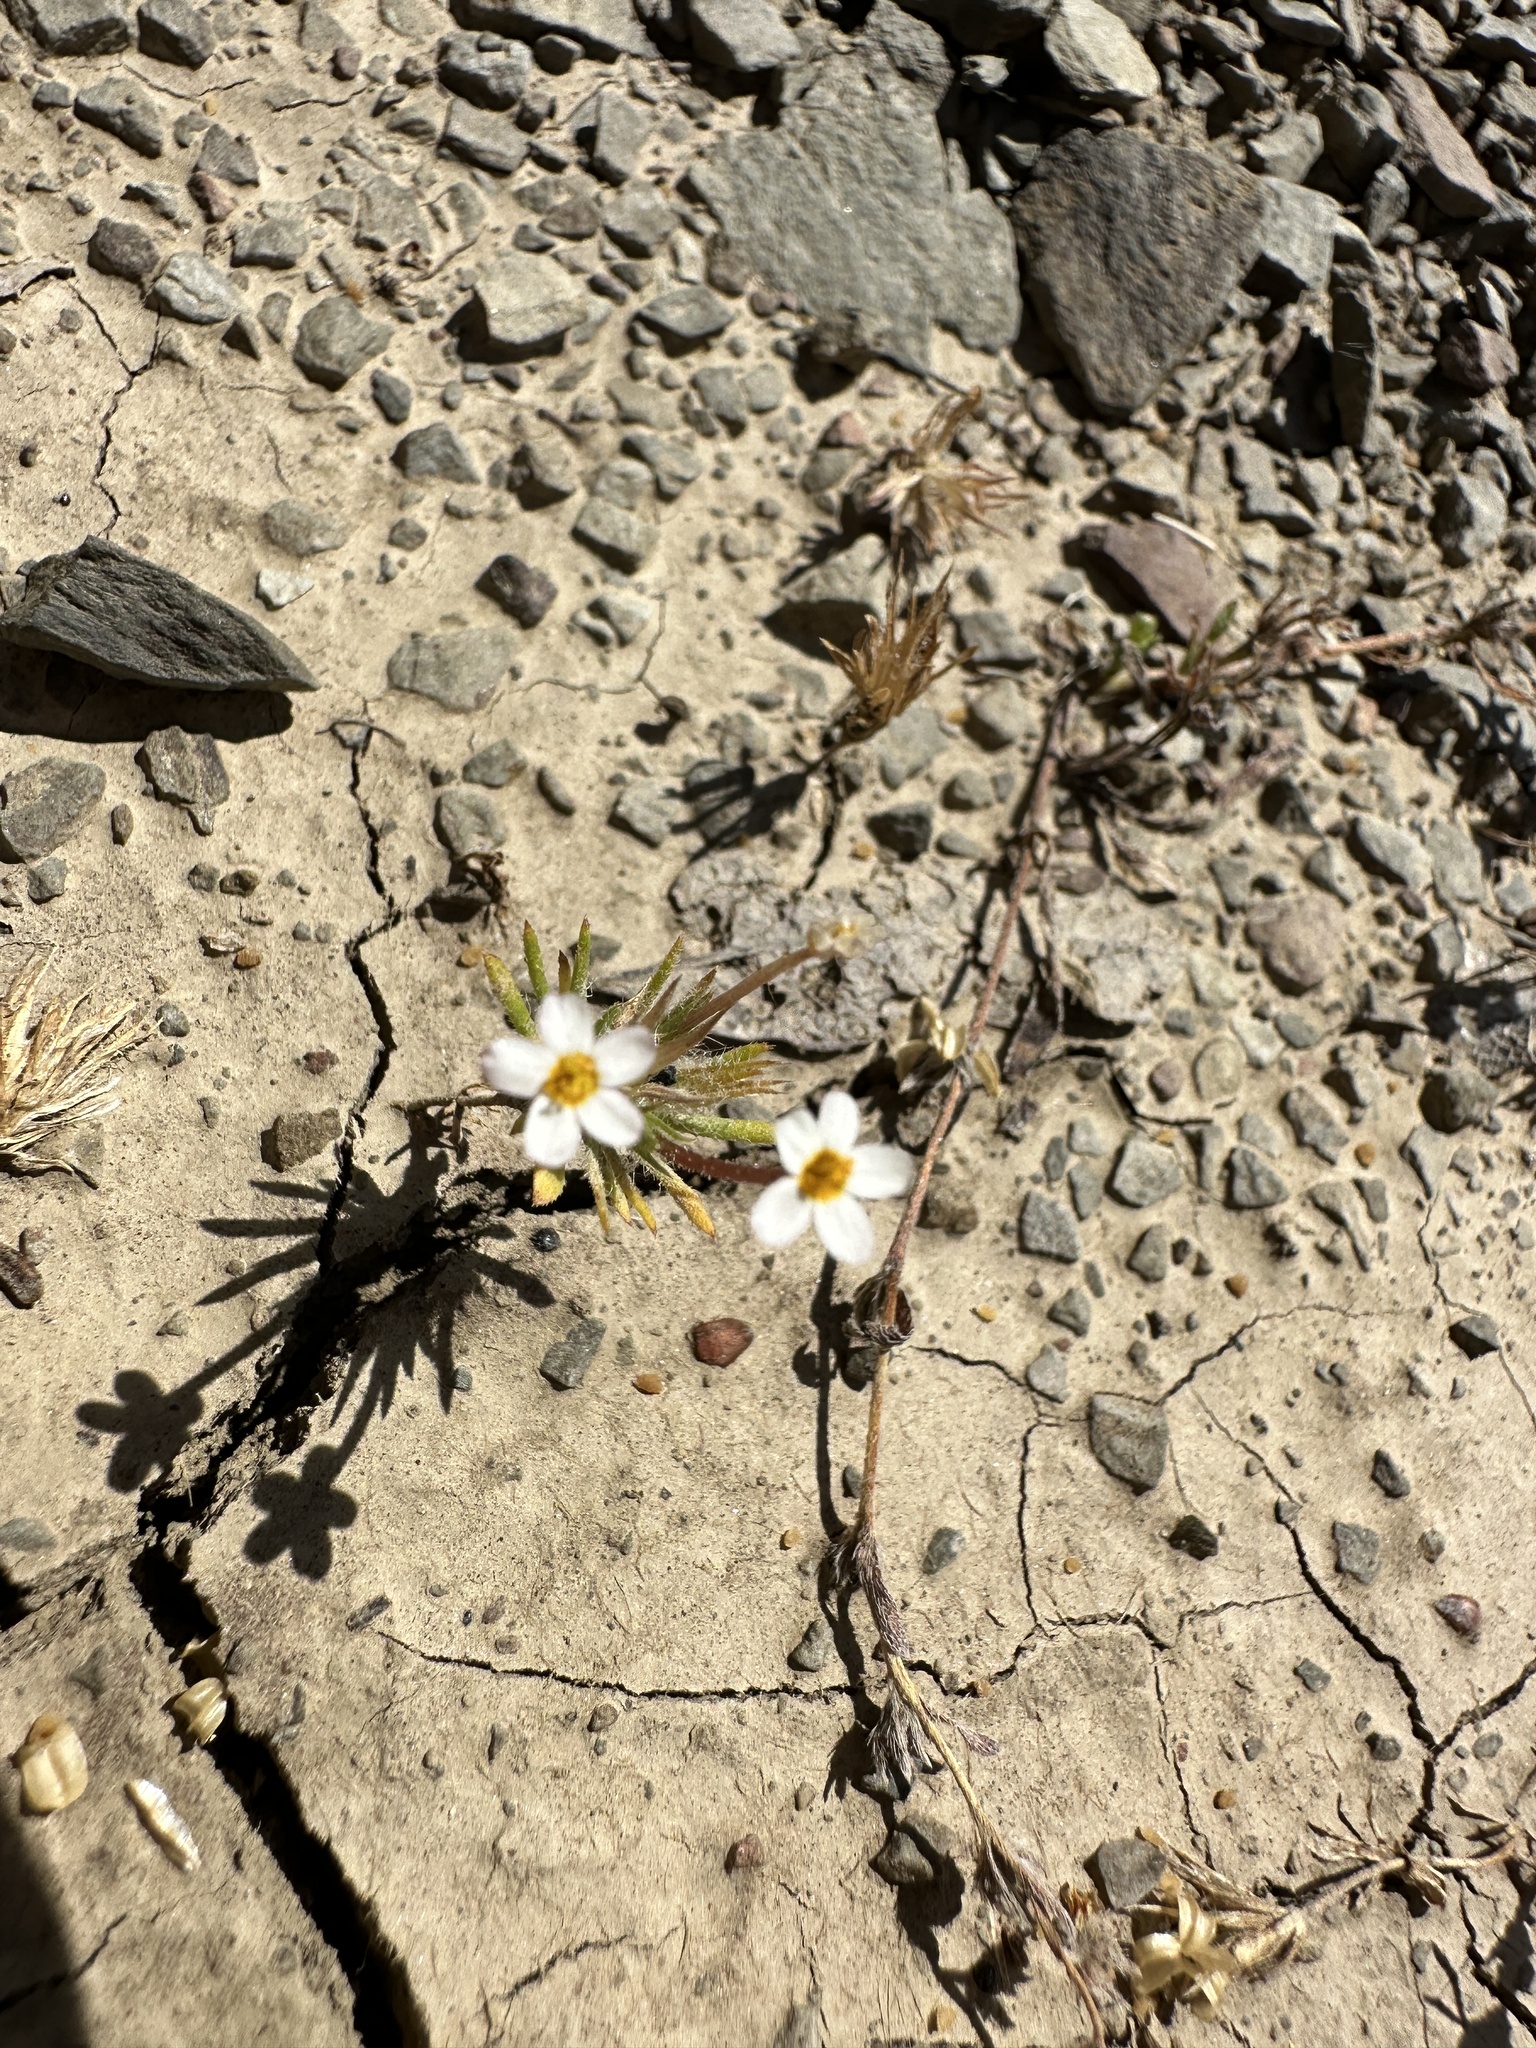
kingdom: Plantae
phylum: Tracheophyta
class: Magnoliopsida
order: Ericales
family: Polemoniaceae
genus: Leptosiphon
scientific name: Leptosiphon parviflorus
